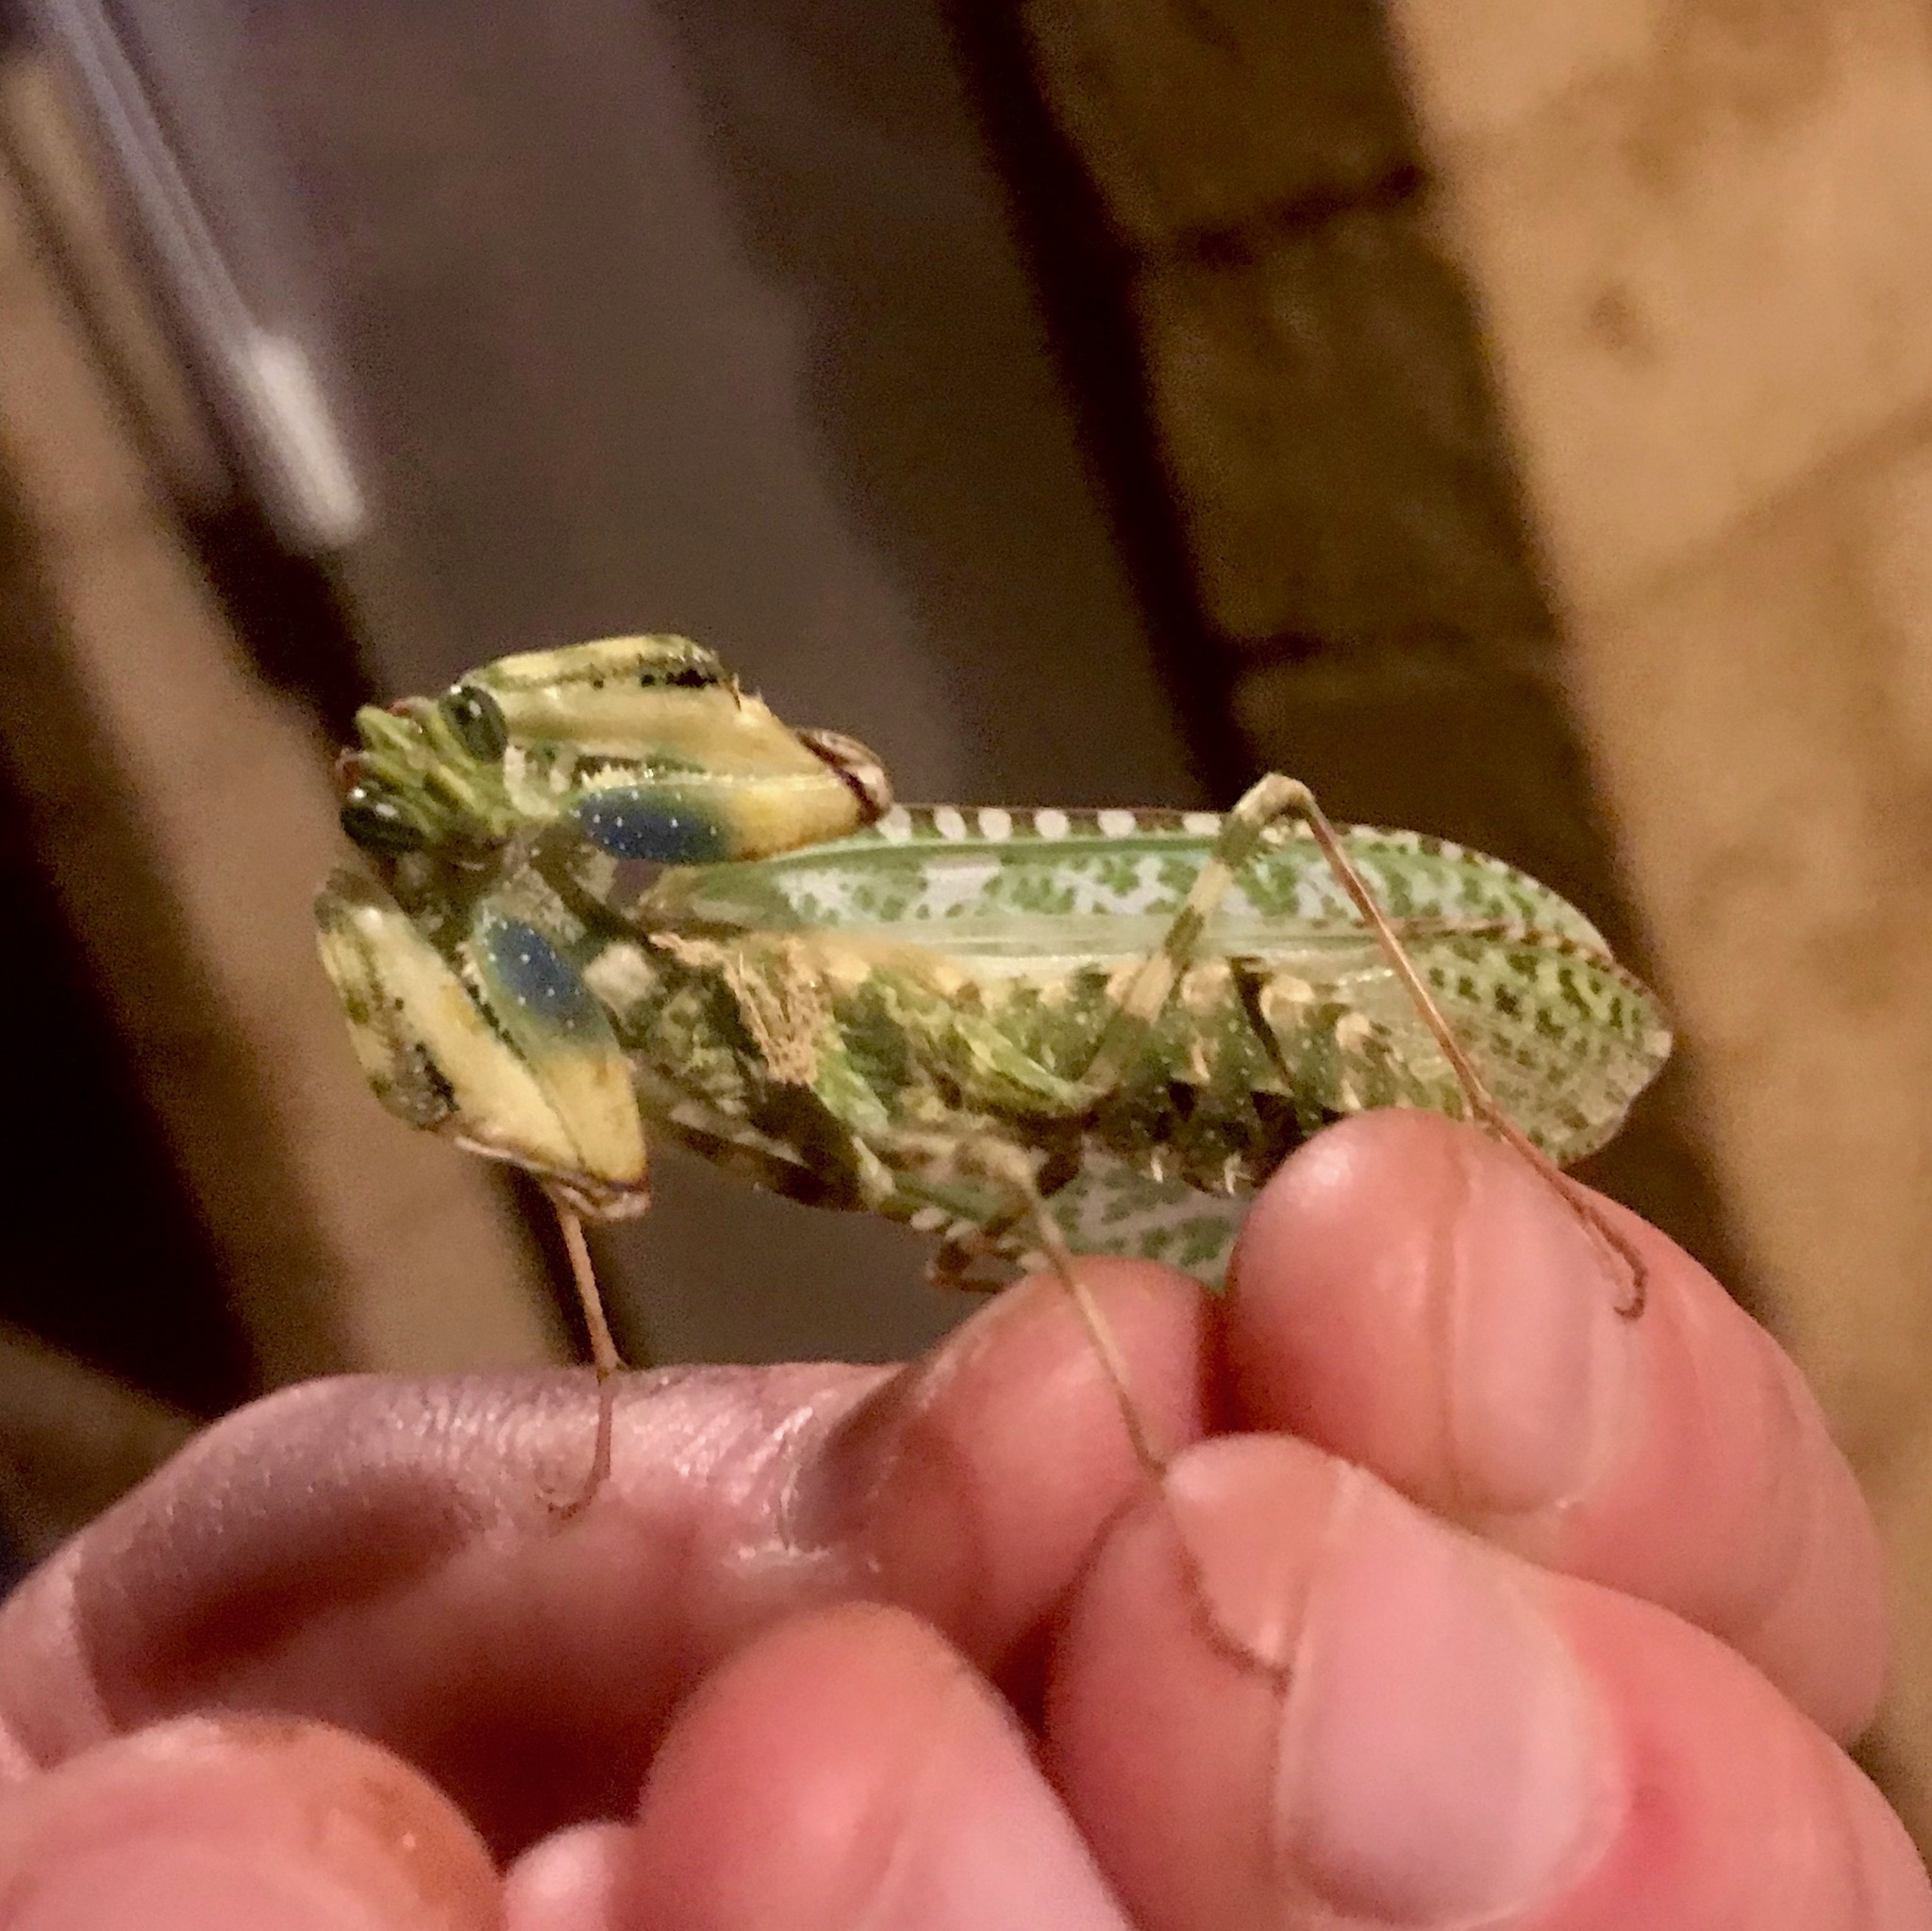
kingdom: Animalia
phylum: Arthropoda
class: Insecta
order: Mantodea
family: Empusidae
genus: Blepharopsis
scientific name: Blepharopsis mendica
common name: Devil's flower mantis
